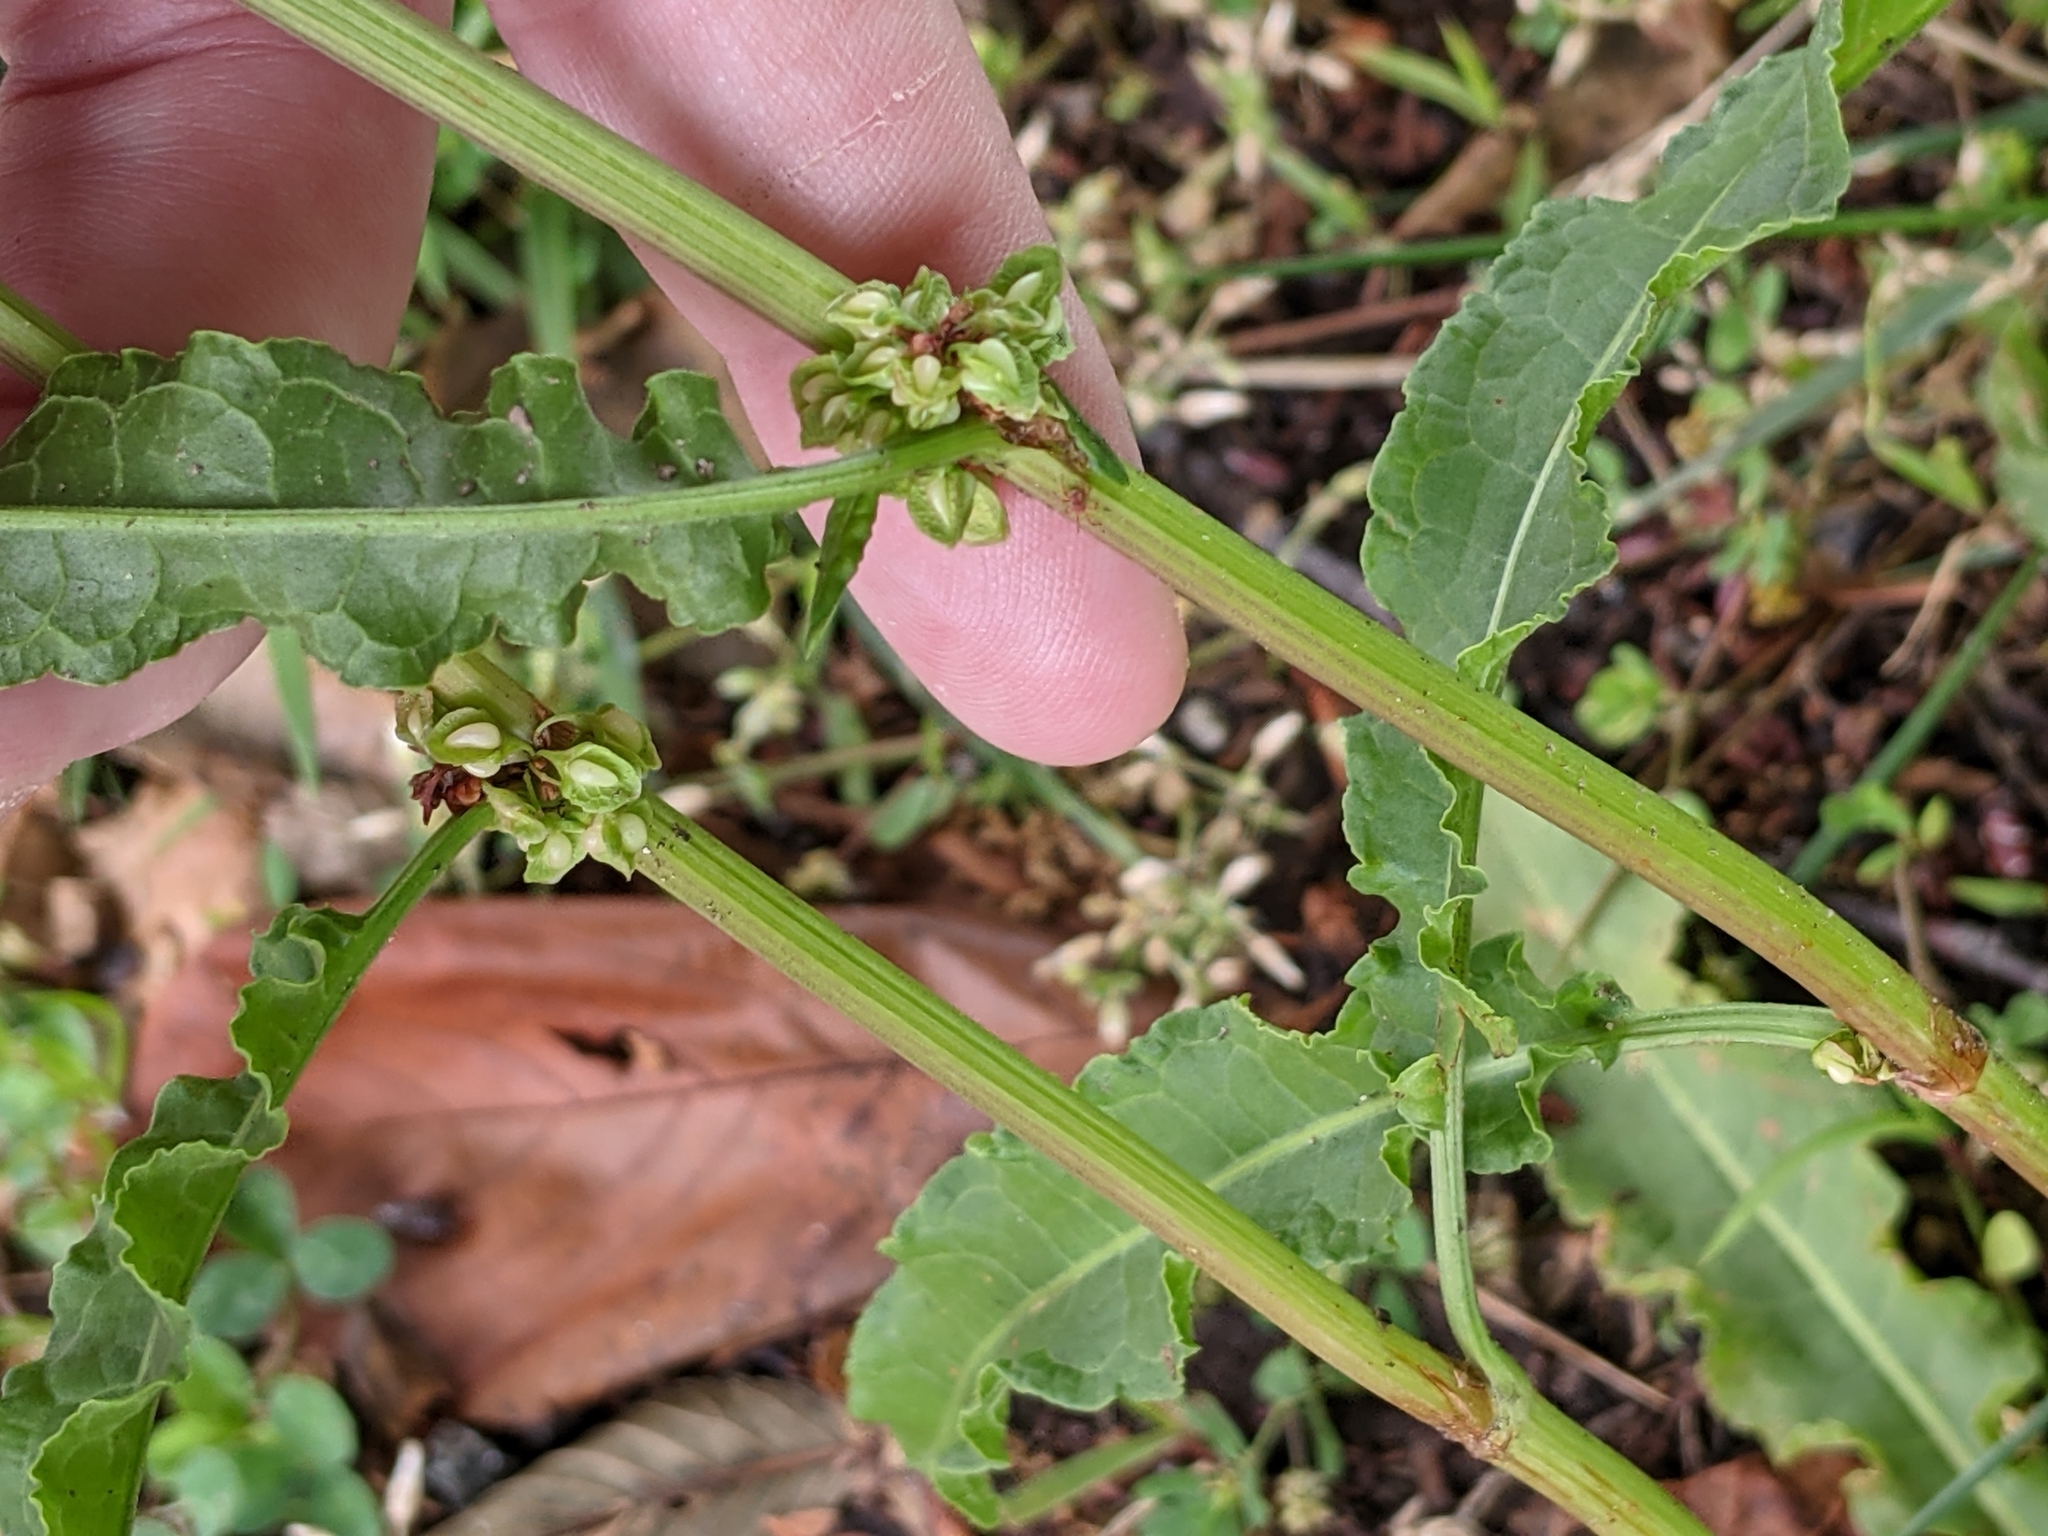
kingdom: Plantae
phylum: Tracheophyta
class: Magnoliopsida
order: Caryophyllales
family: Polygonaceae
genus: Rumex
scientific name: Rumex crispus
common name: Curled dock
